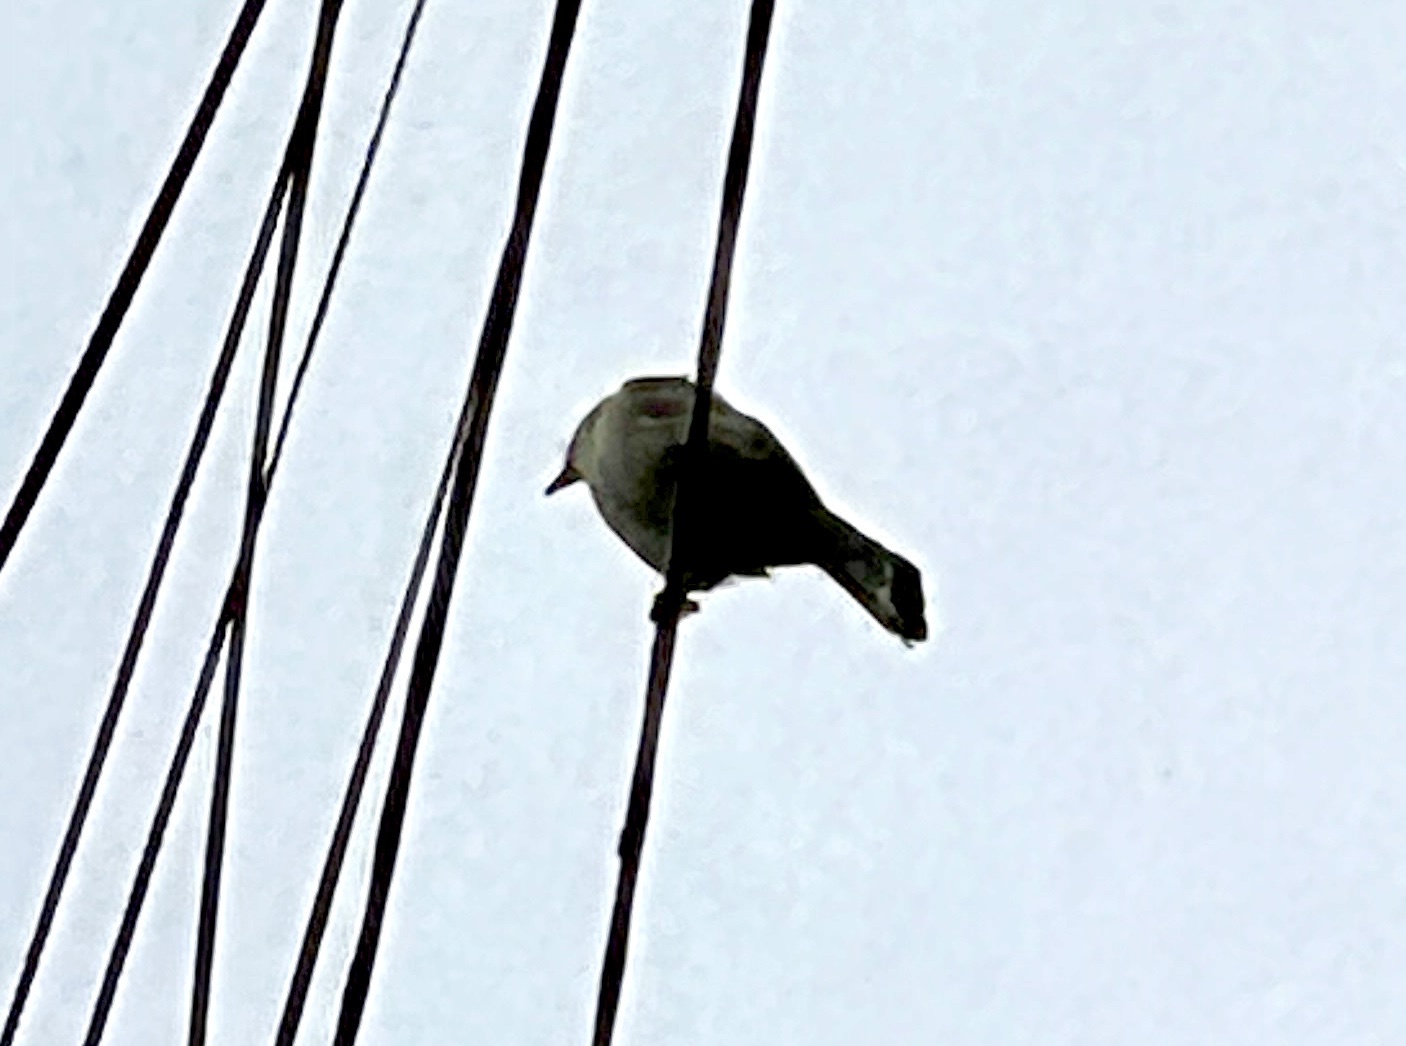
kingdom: Animalia
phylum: Chordata
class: Aves
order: Passeriformes
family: Pycnonotidae
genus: Pycnonotus
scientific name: Pycnonotus jocosus
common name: Red-whiskered bulbul
